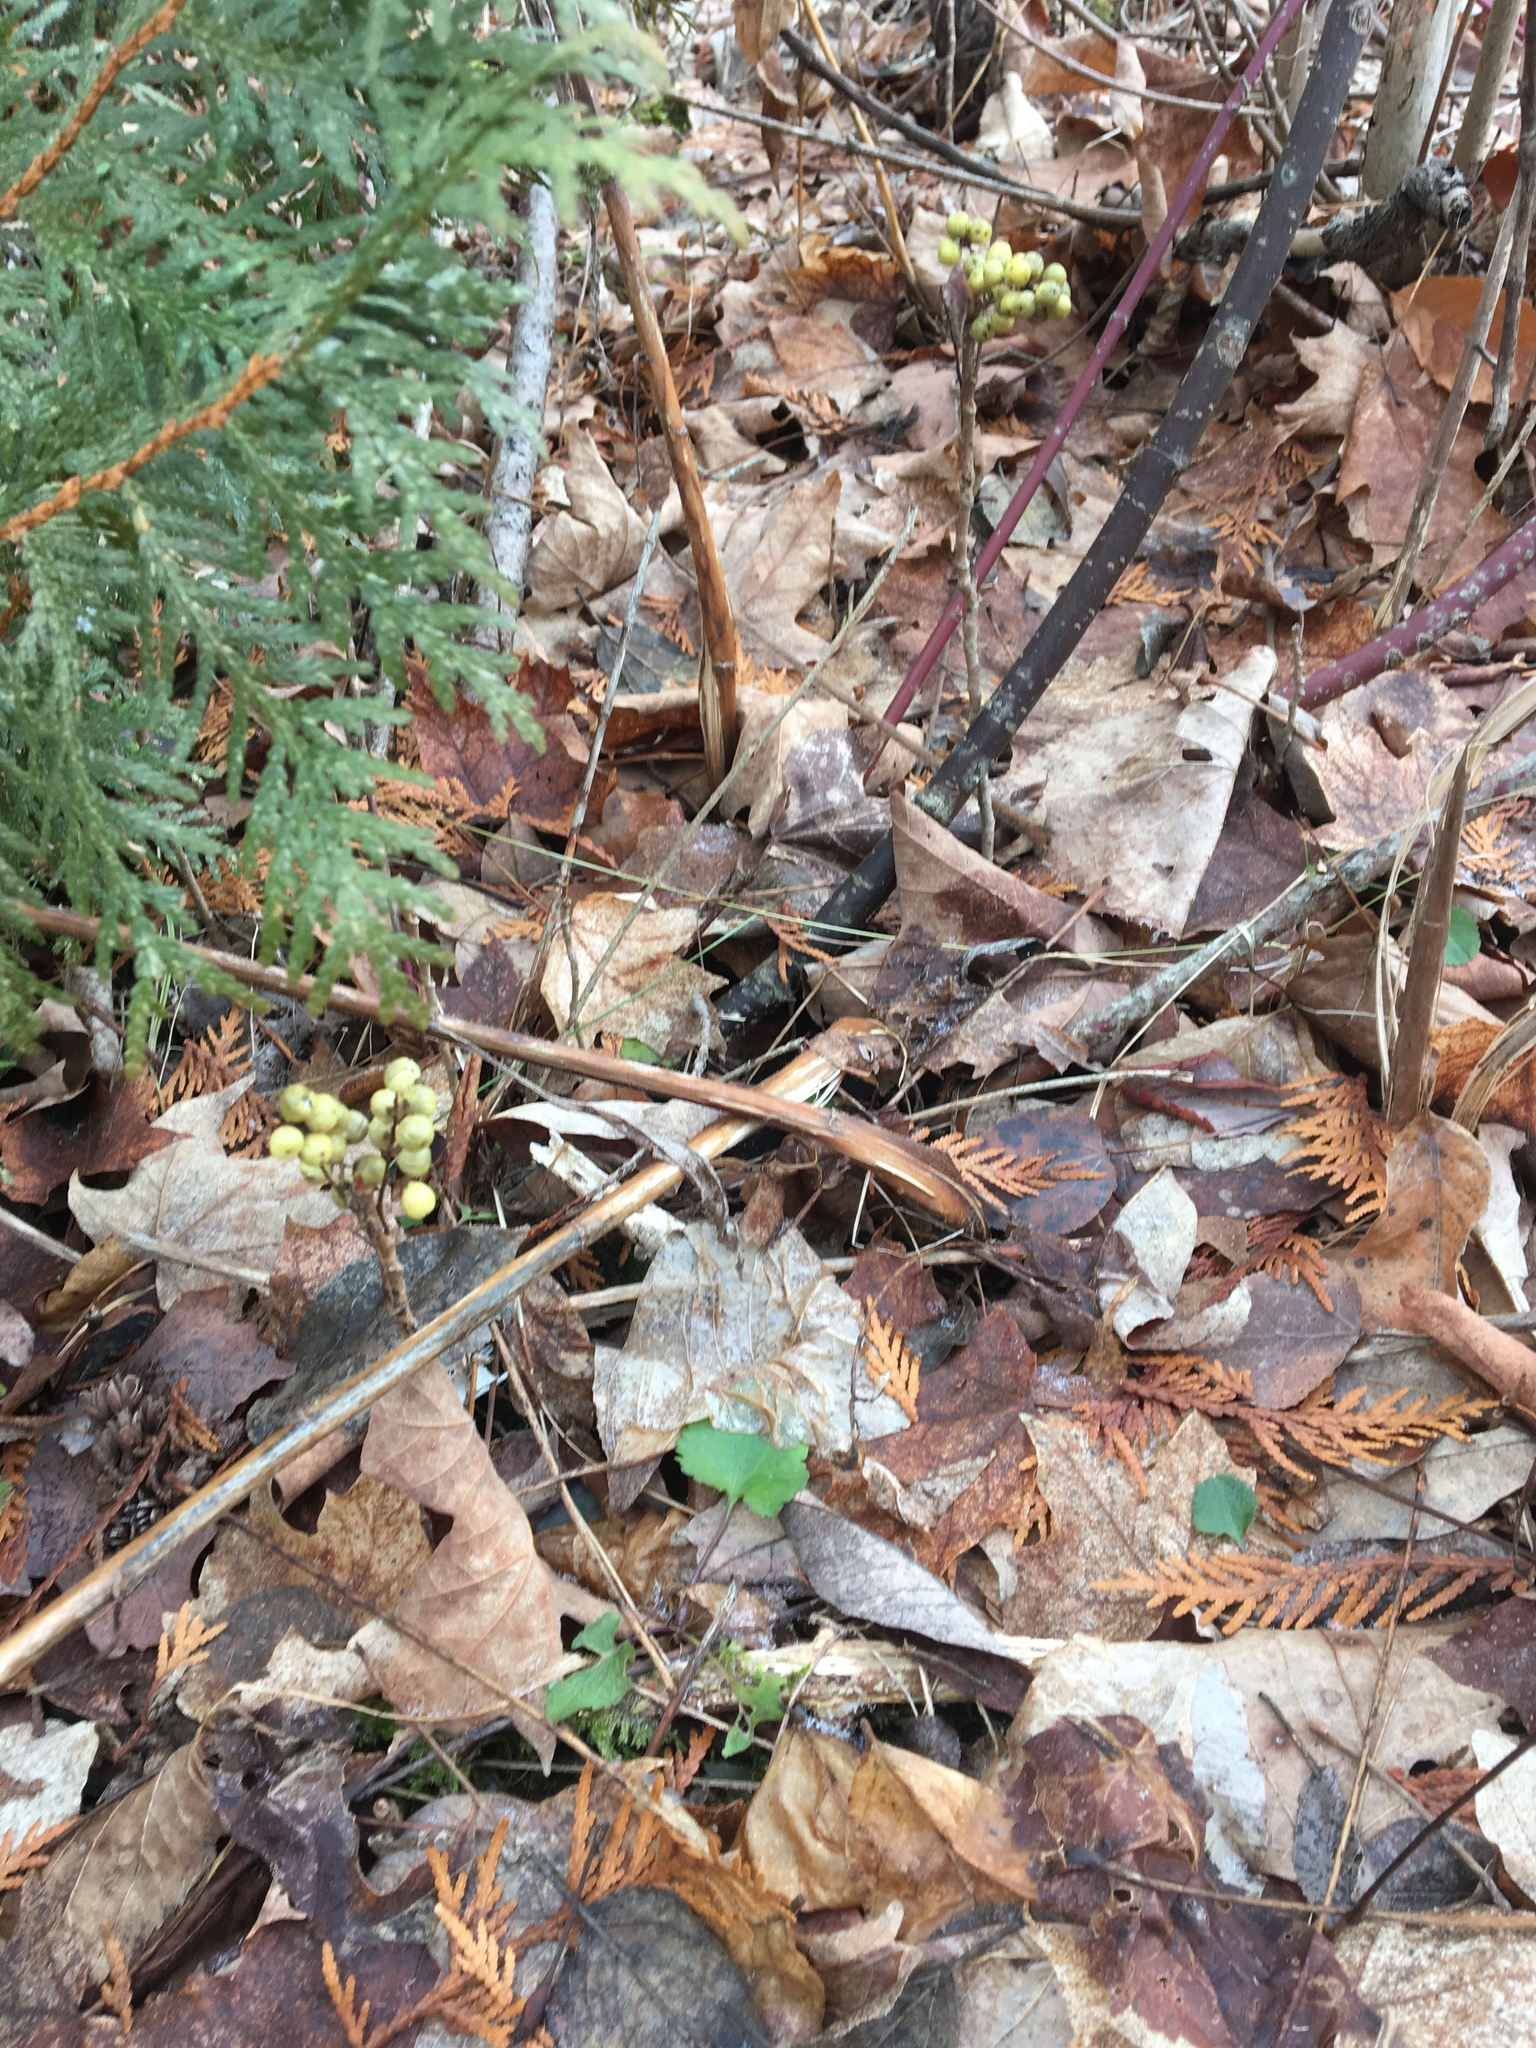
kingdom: Plantae
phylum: Tracheophyta
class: Magnoliopsida
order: Sapindales
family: Anacardiaceae
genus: Toxicodendron
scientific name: Toxicodendron rydbergii
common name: Rydberg's poison-ivy
